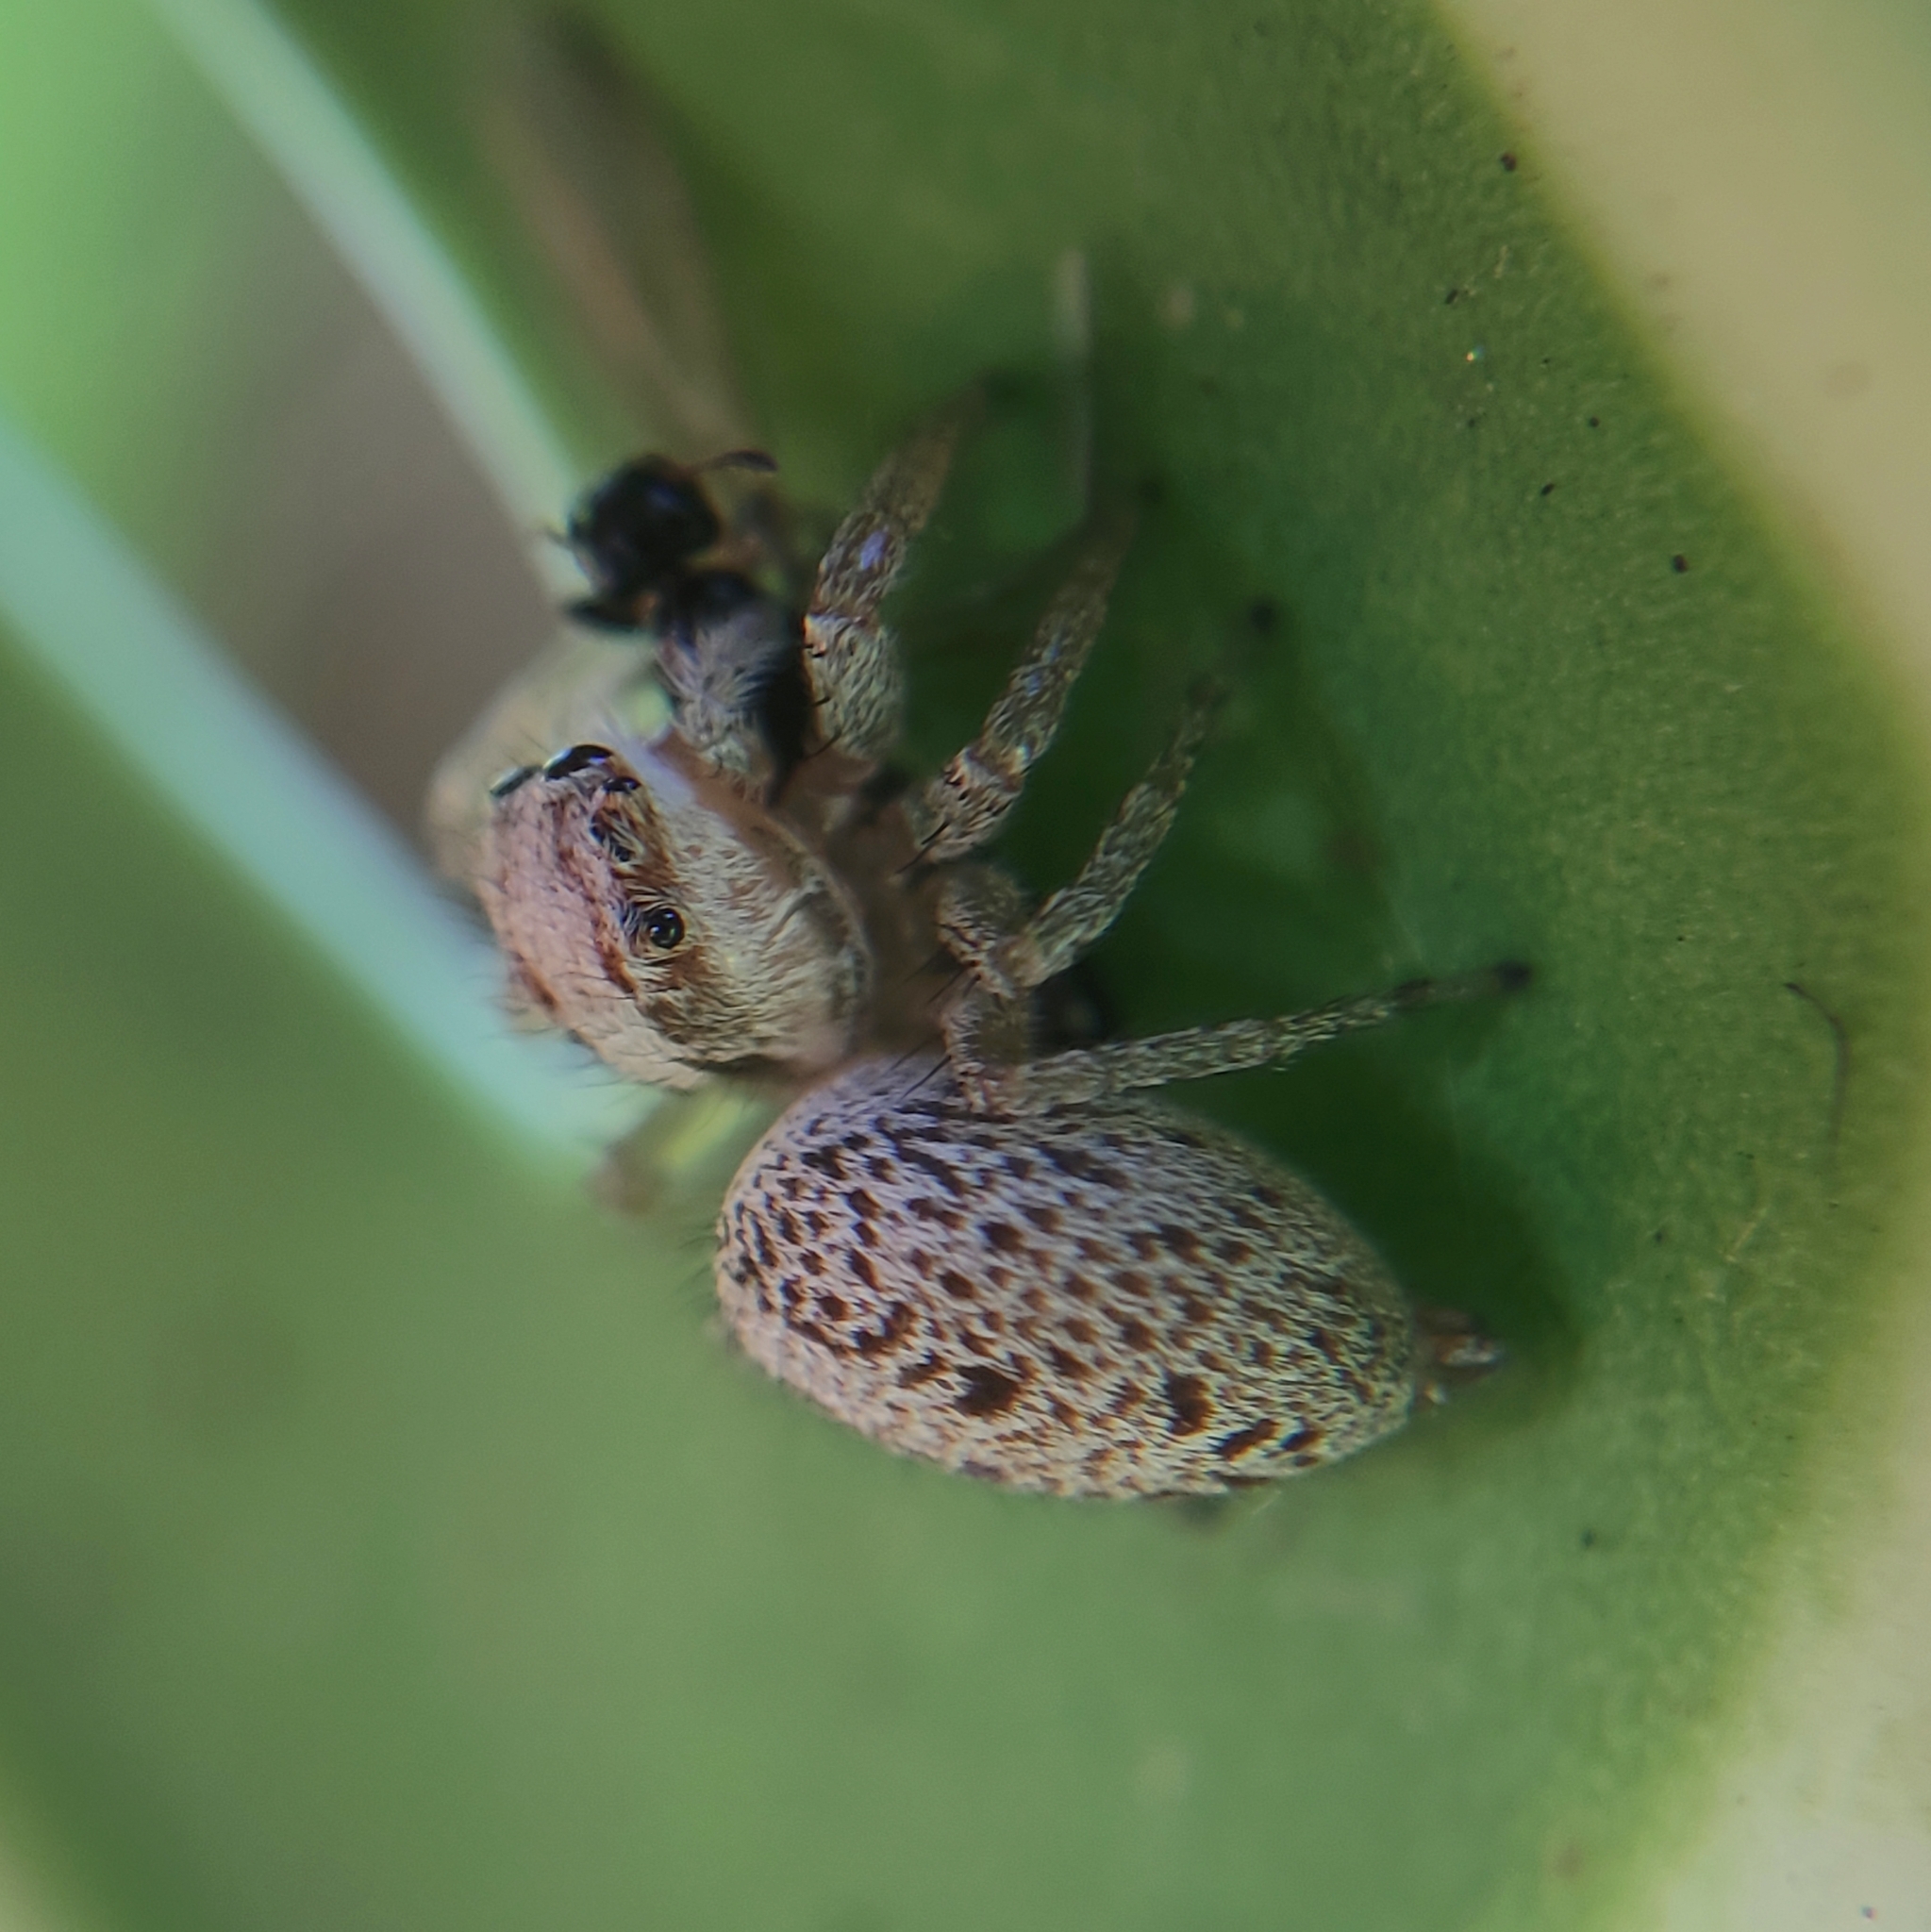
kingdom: Animalia
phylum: Arthropoda
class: Arachnida
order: Araneae
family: Salticidae
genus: Chira
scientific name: Chira lucina
